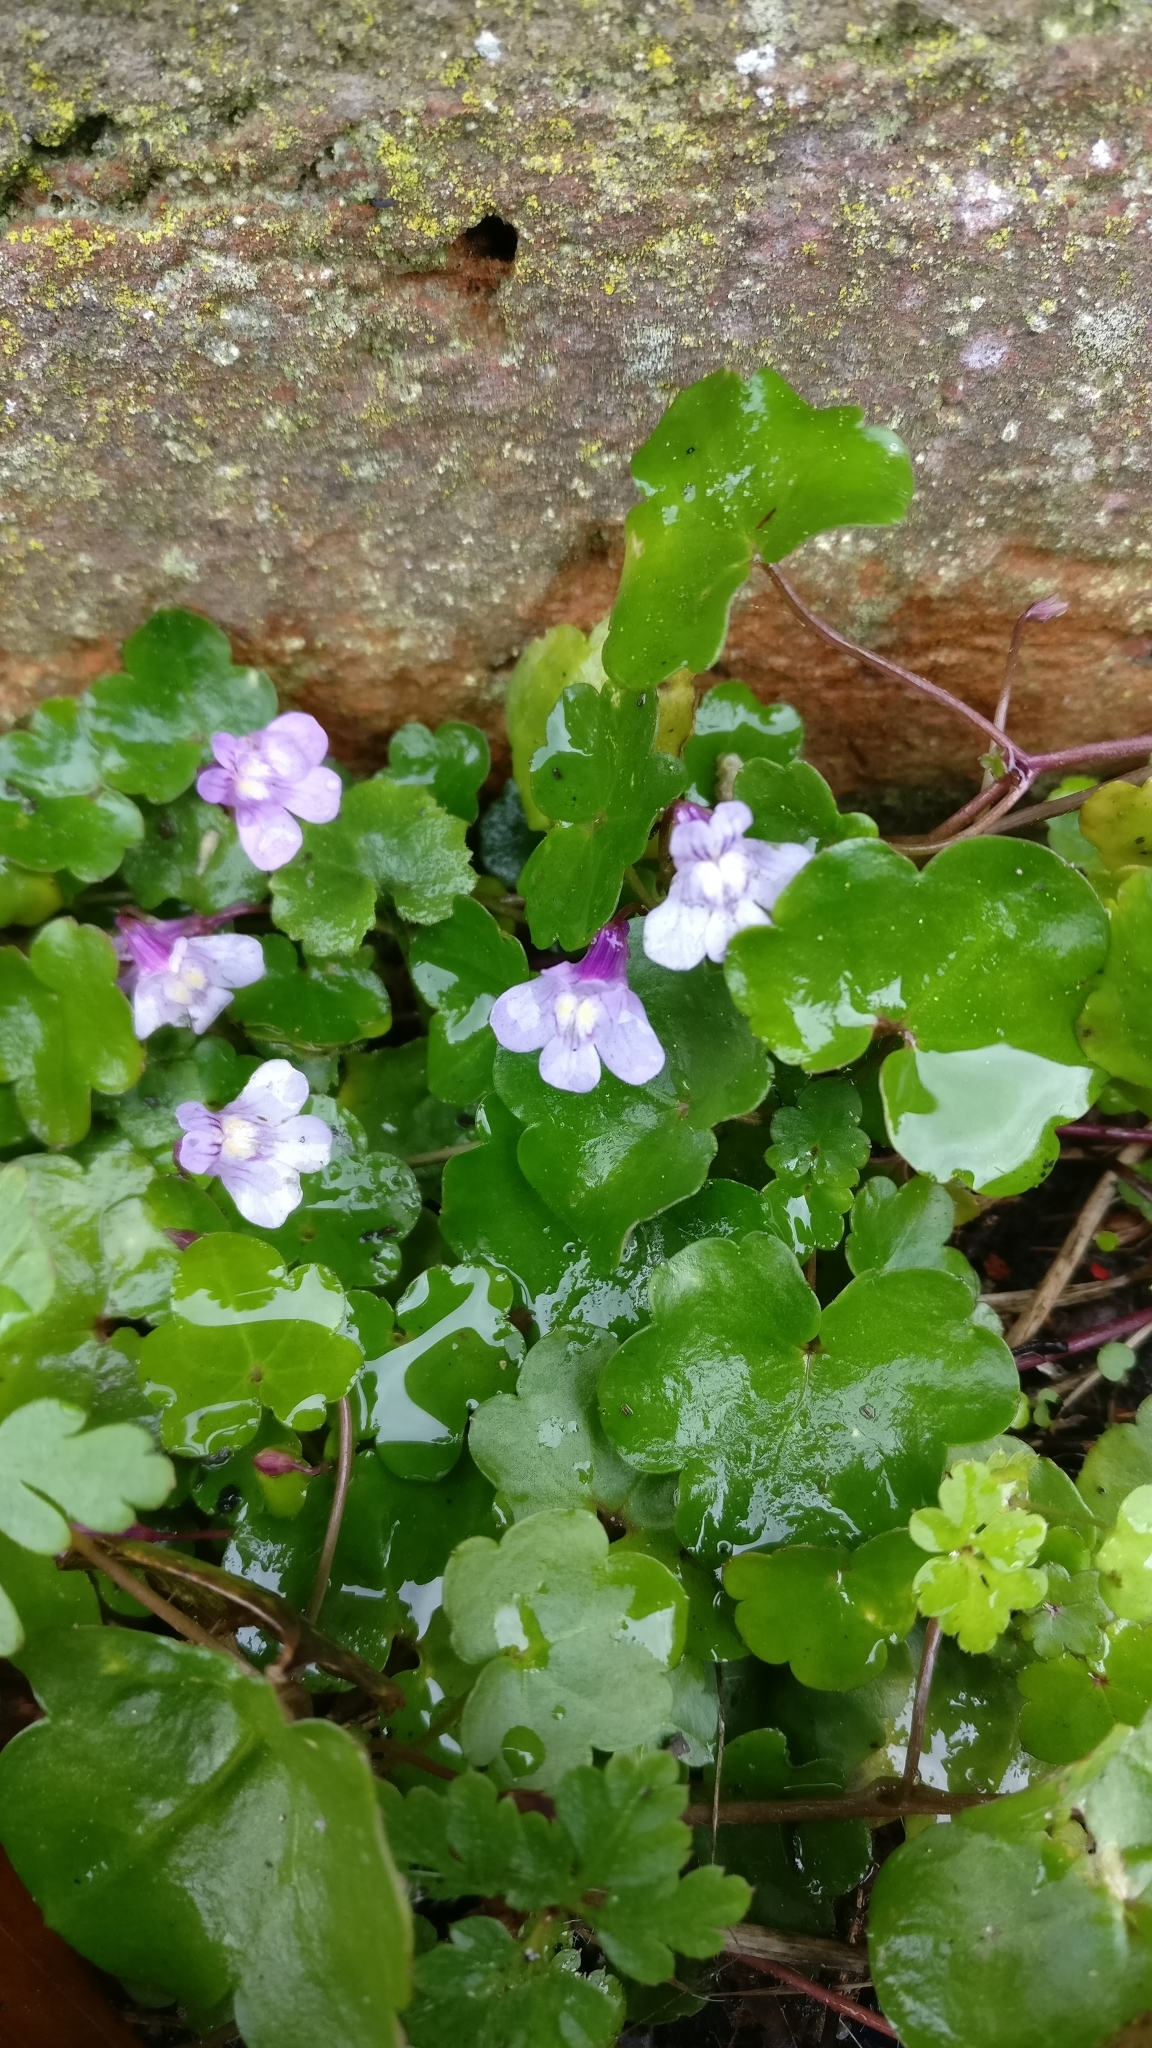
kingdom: Plantae
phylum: Tracheophyta
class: Magnoliopsida
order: Lamiales
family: Plantaginaceae
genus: Cymbalaria
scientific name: Cymbalaria muralis
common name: Ivy-leaved toadflax
